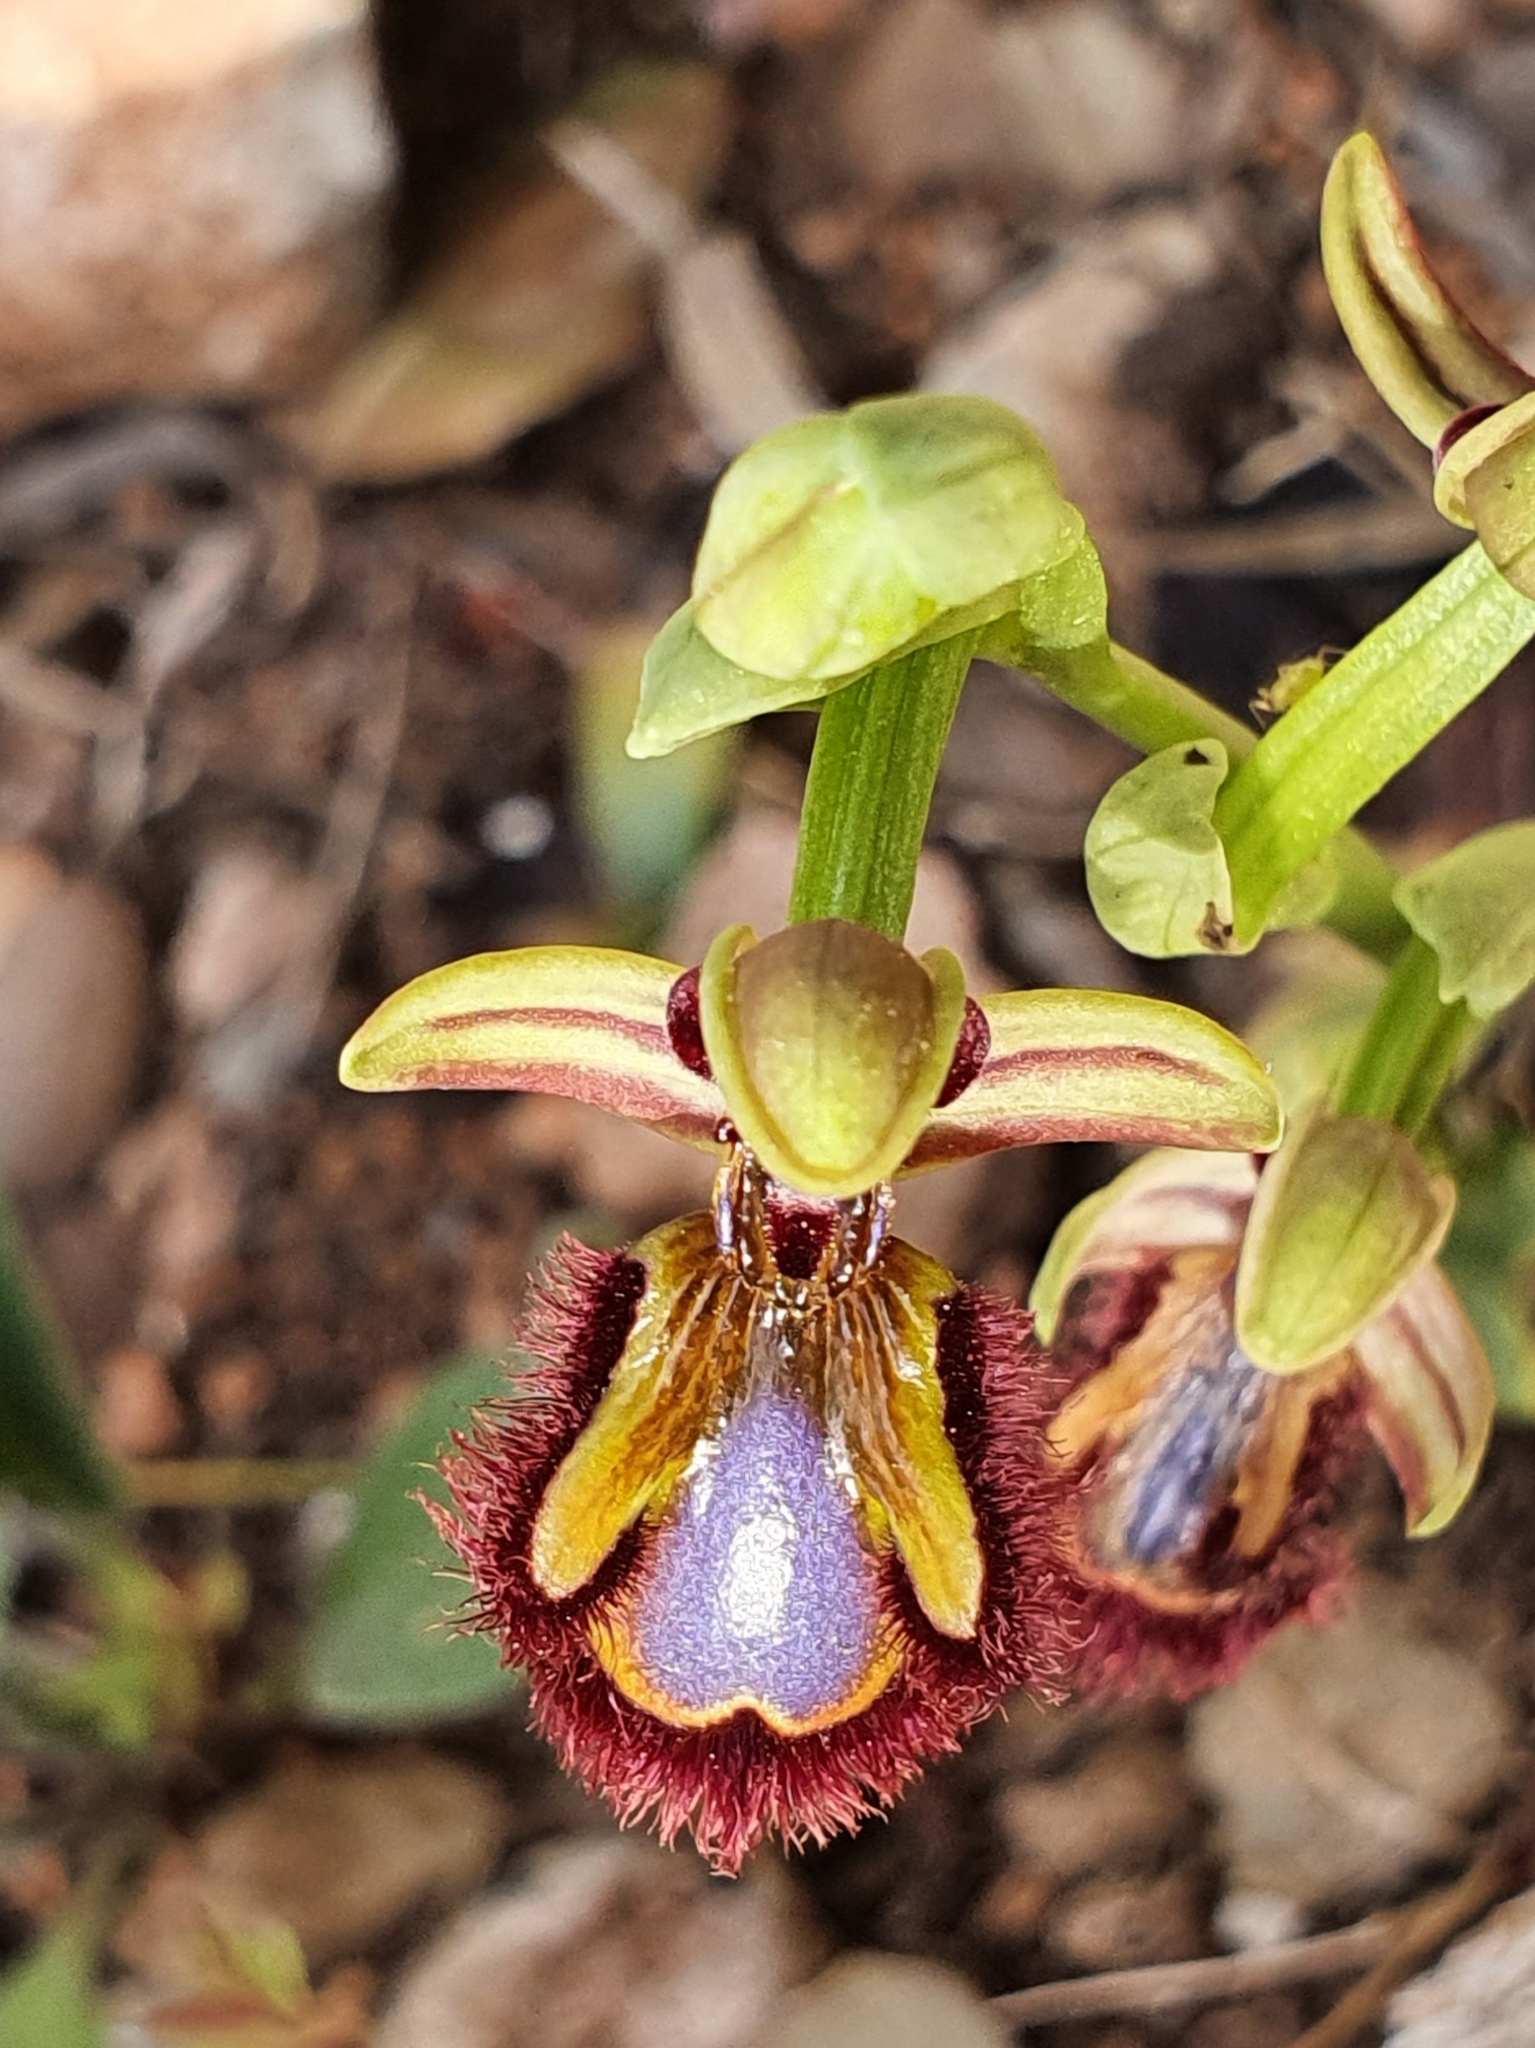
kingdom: Plantae
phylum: Tracheophyta
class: Liliopsida
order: Asparagales
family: Orchidaceae
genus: Ophrys
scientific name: Ophrys speculum
